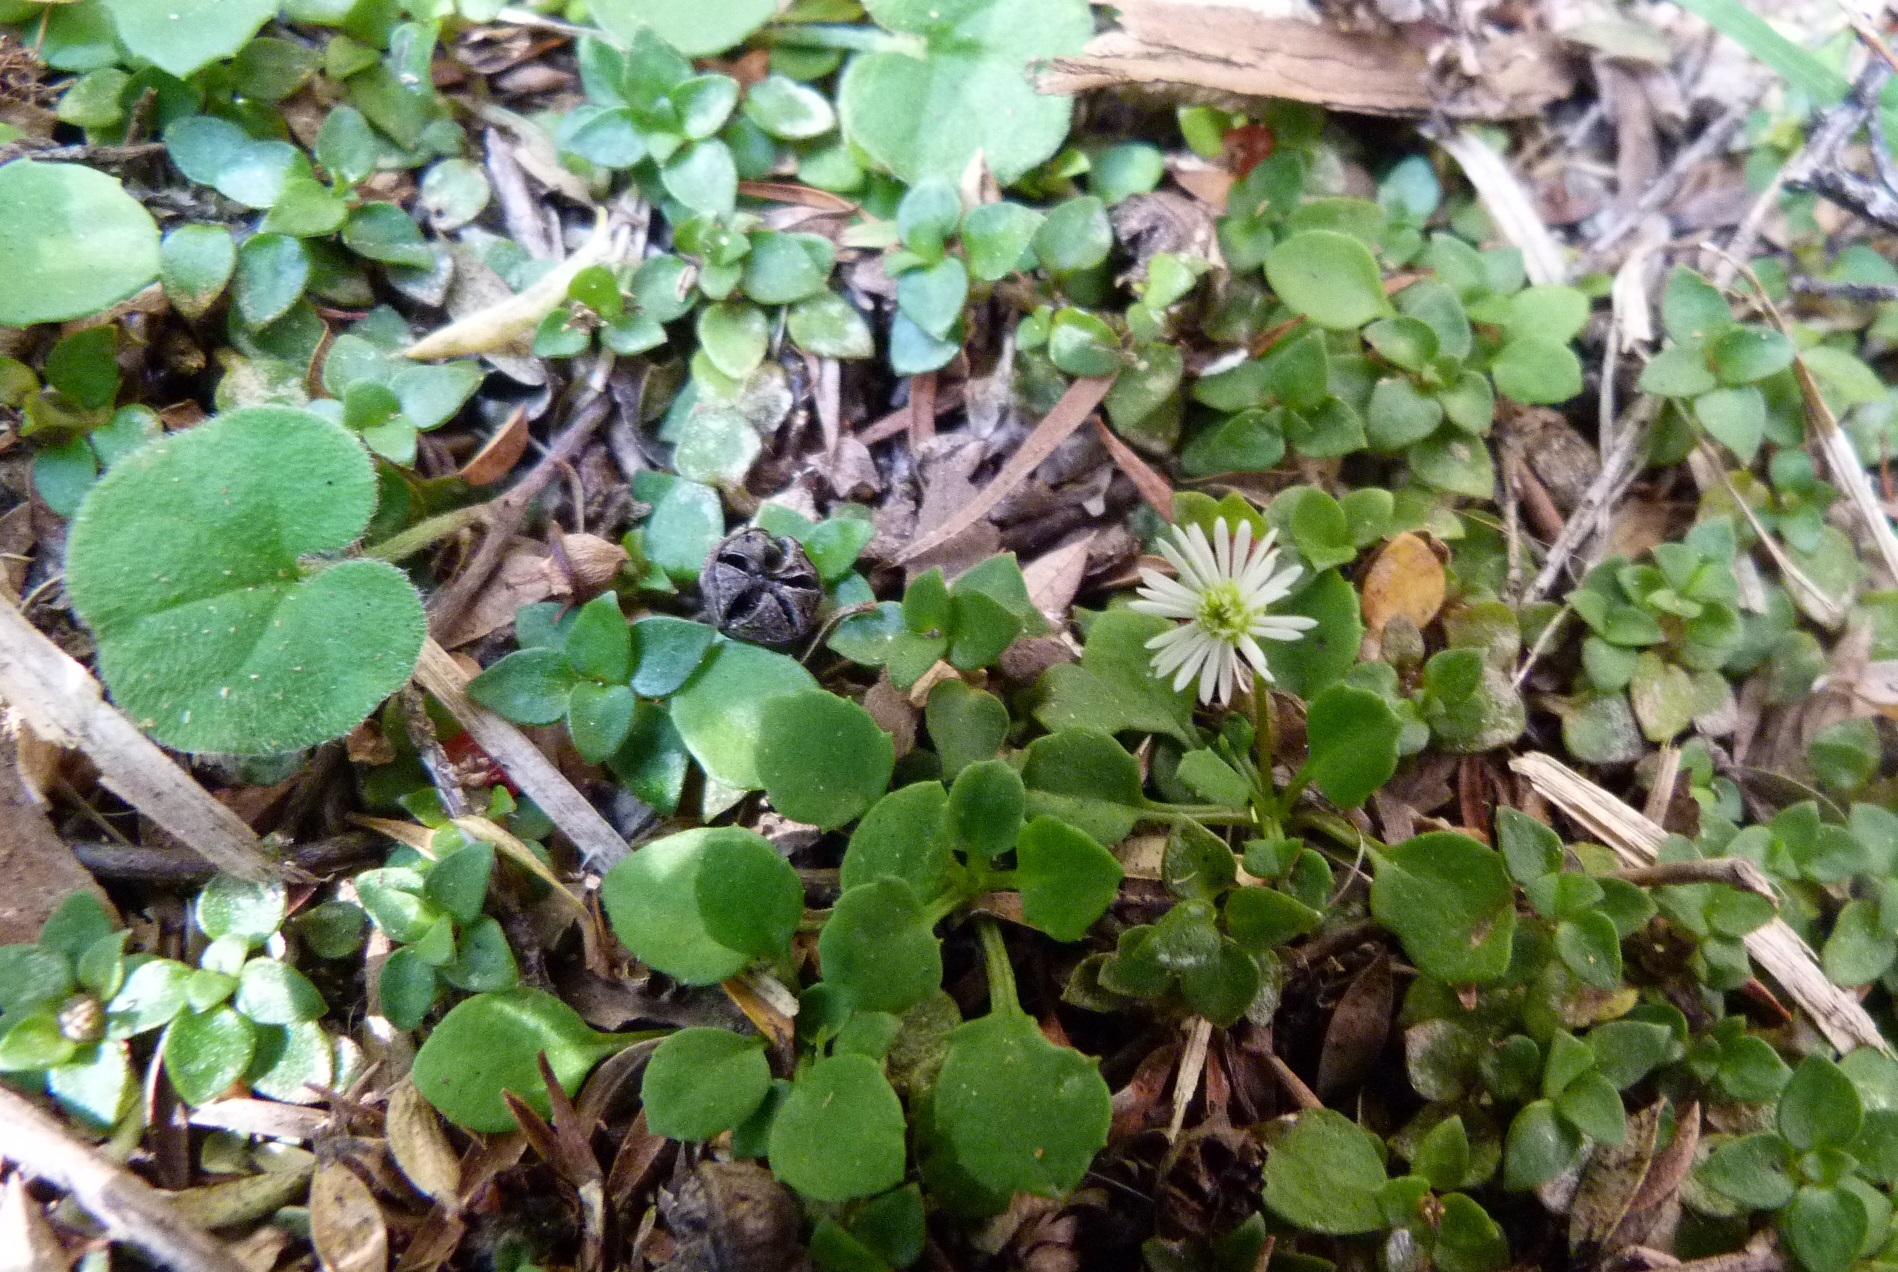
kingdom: Plantae
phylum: Tracheophyta
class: Magnoliopsida
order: Asterales
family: Asteraceae
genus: Lagenophora
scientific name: Lagenophora pumila
